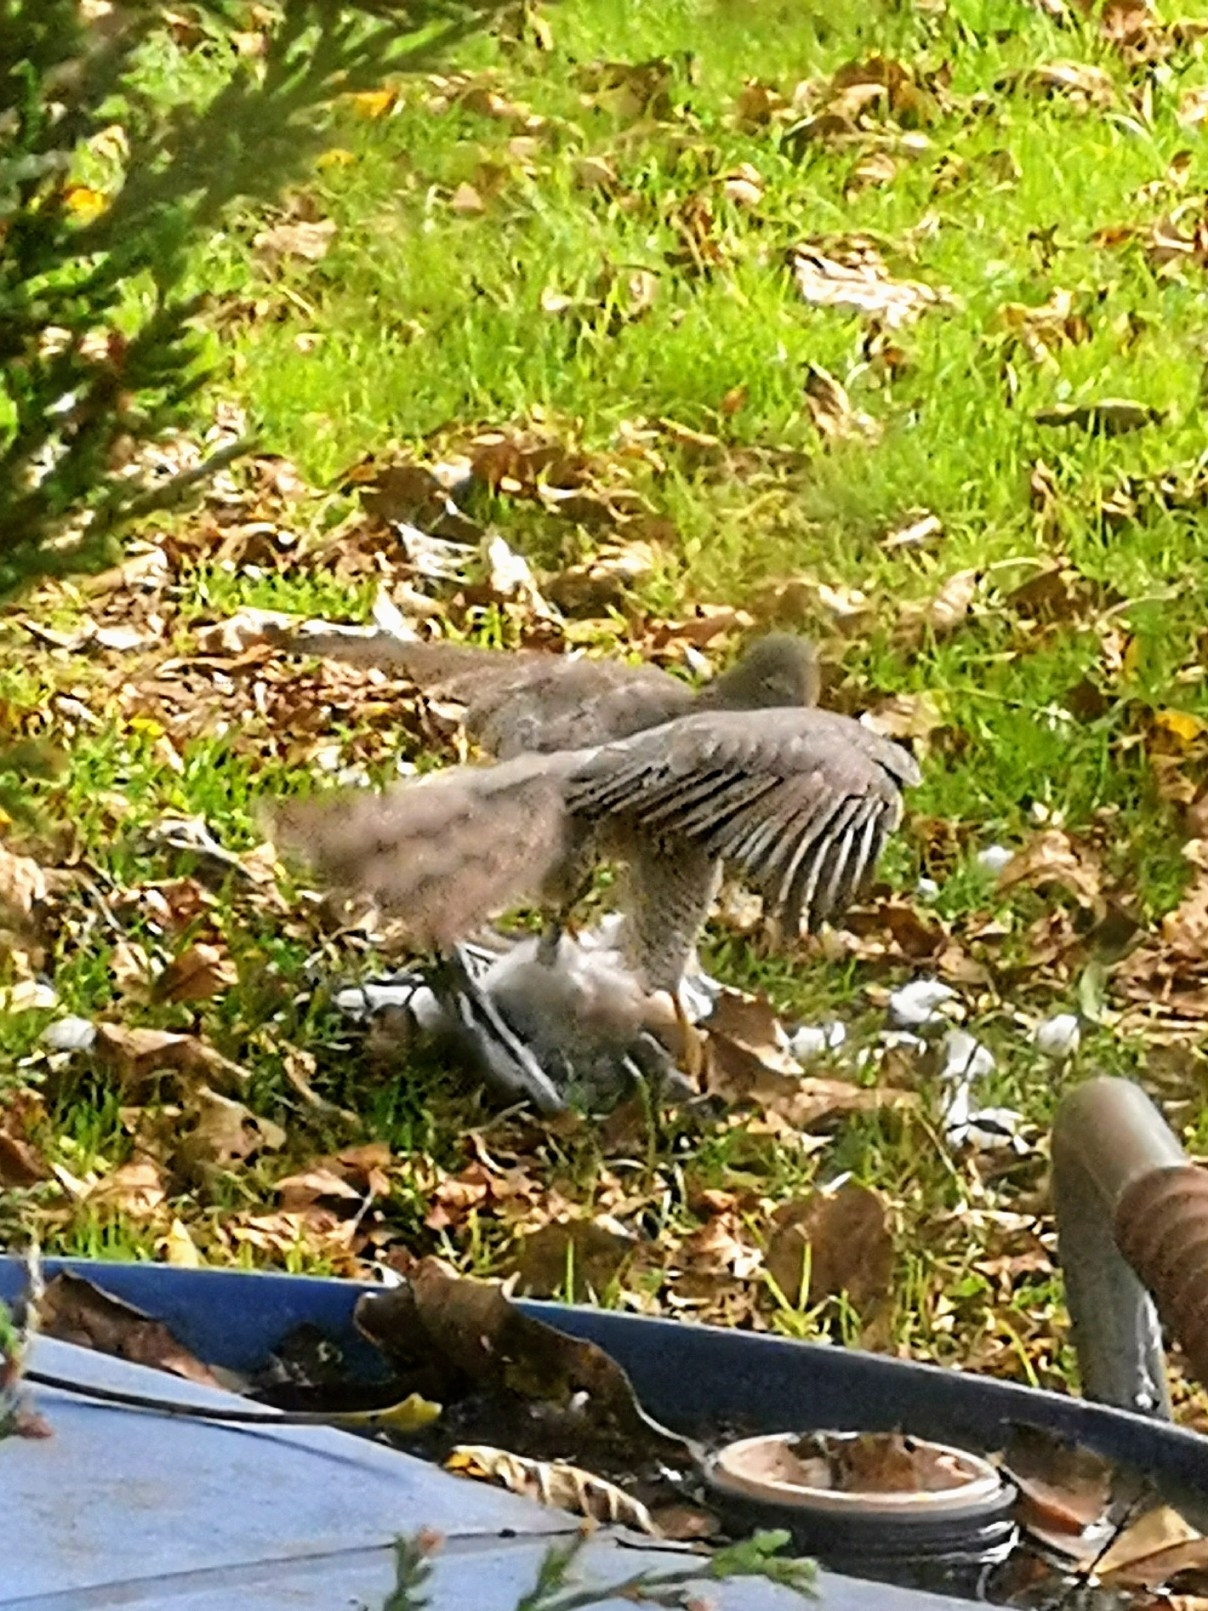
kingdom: Animalia
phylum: Chordata
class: Aves
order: Accipitriformes
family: Accipitridae
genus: Accipiter
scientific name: Accipiter nisus
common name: Eurasian sparrowhawk
